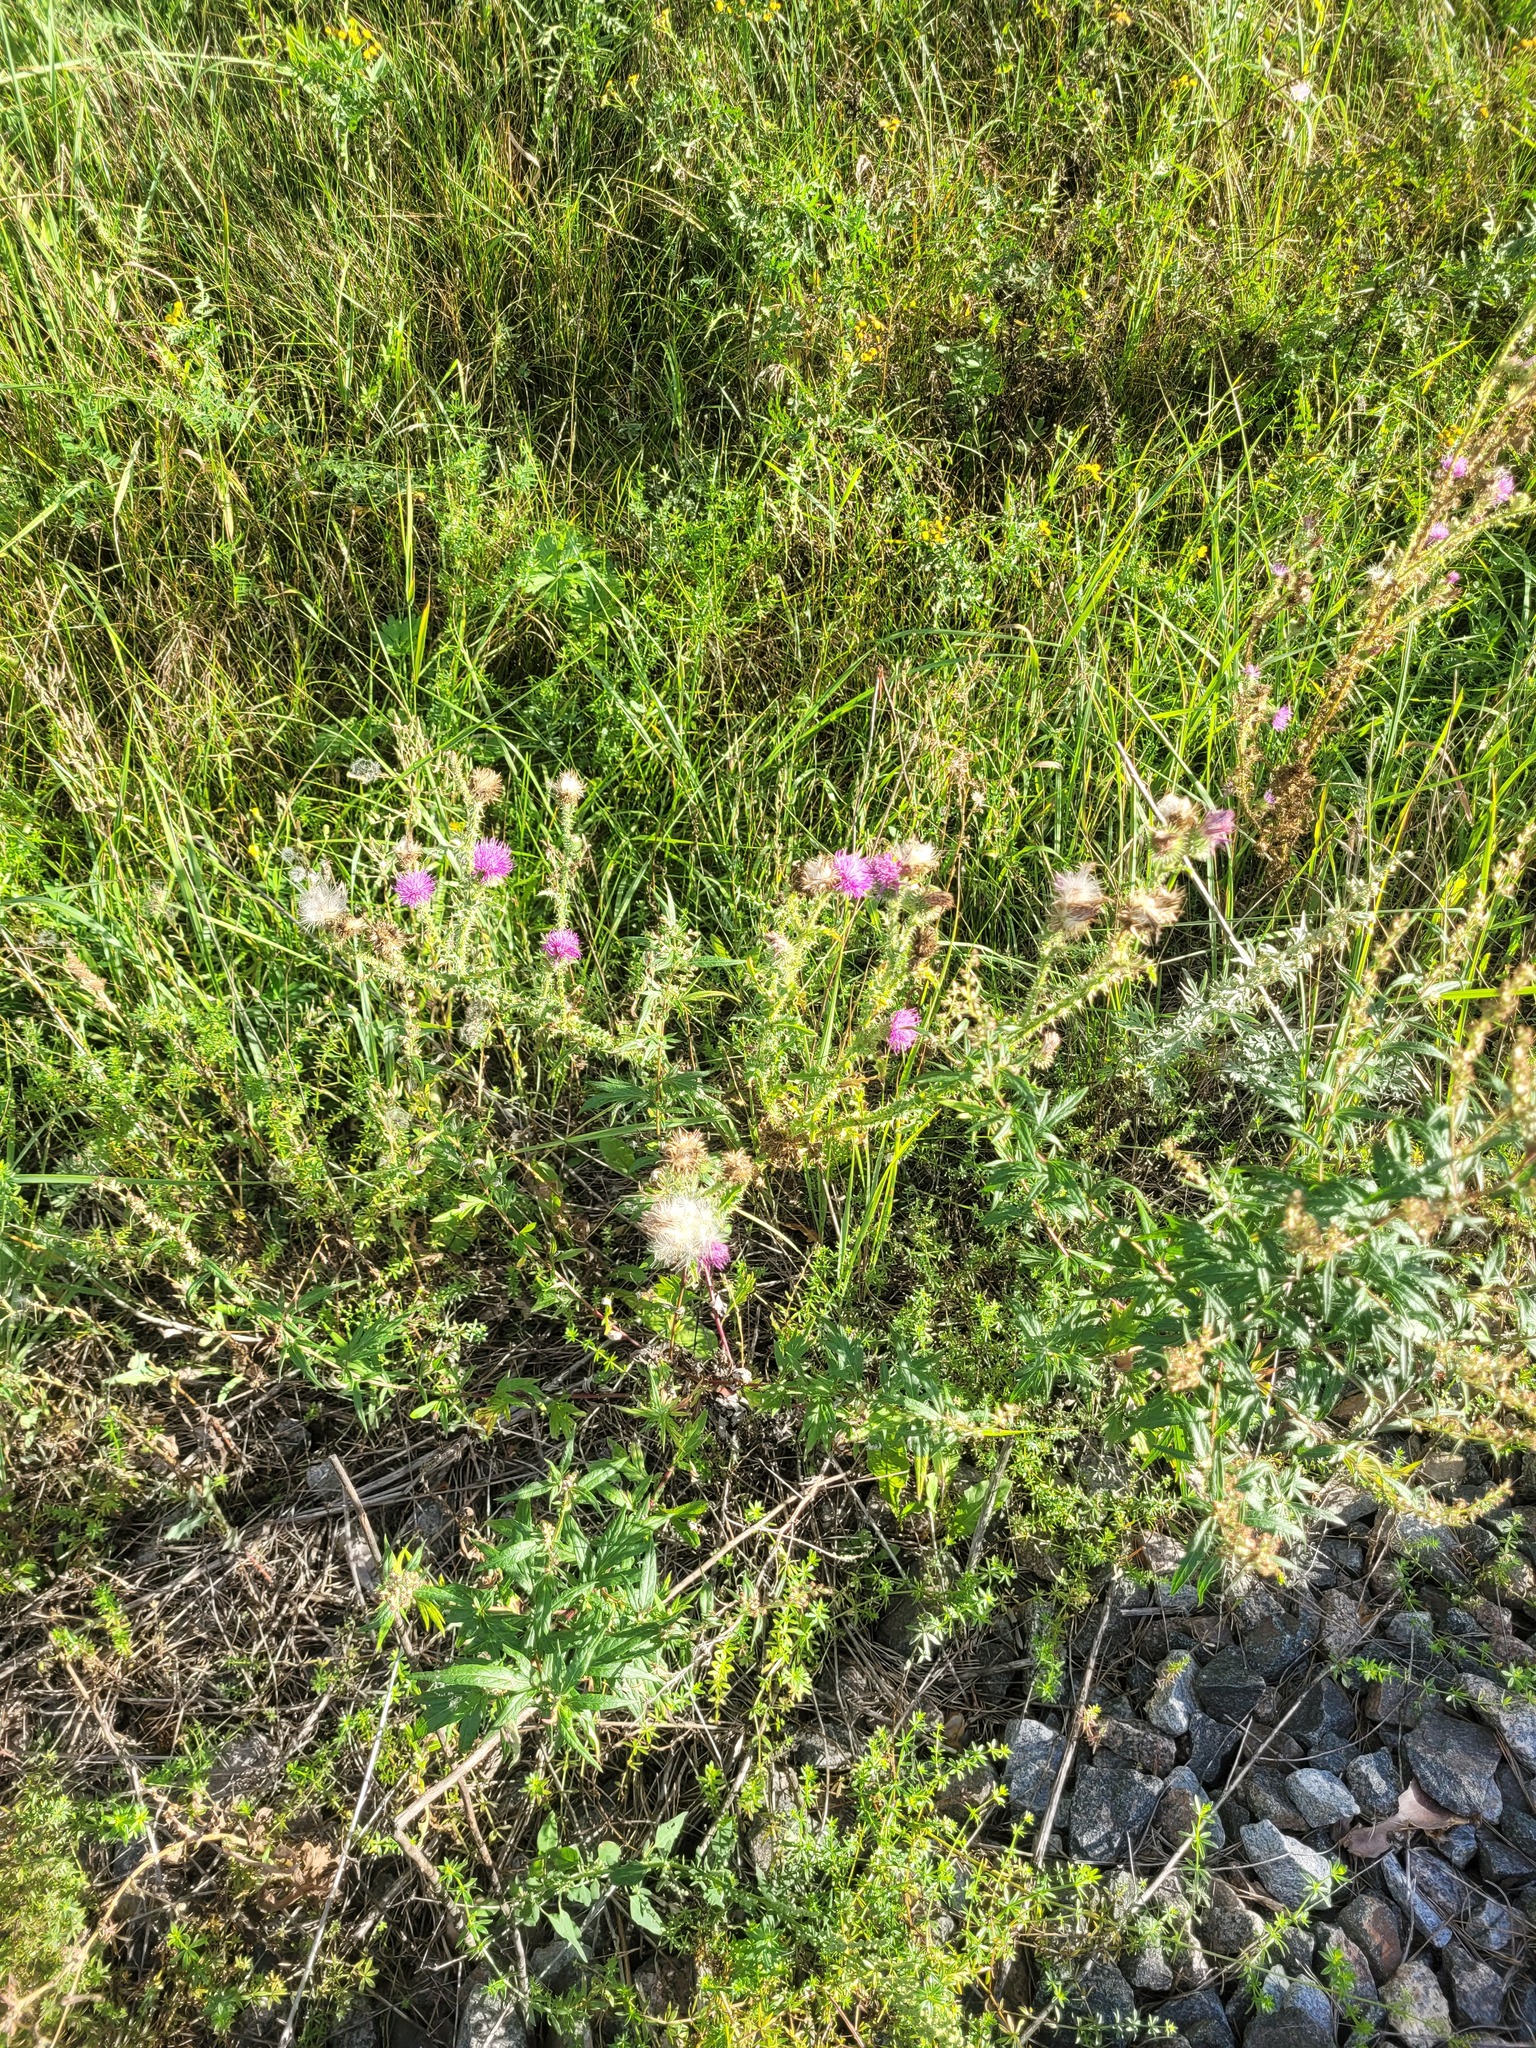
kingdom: Plantae
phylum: Tracheophyta
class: Magnoliopsida
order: Asterales
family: Asteraceae
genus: Carduus
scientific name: Carduus acanthoides
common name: Plumeless thistle
